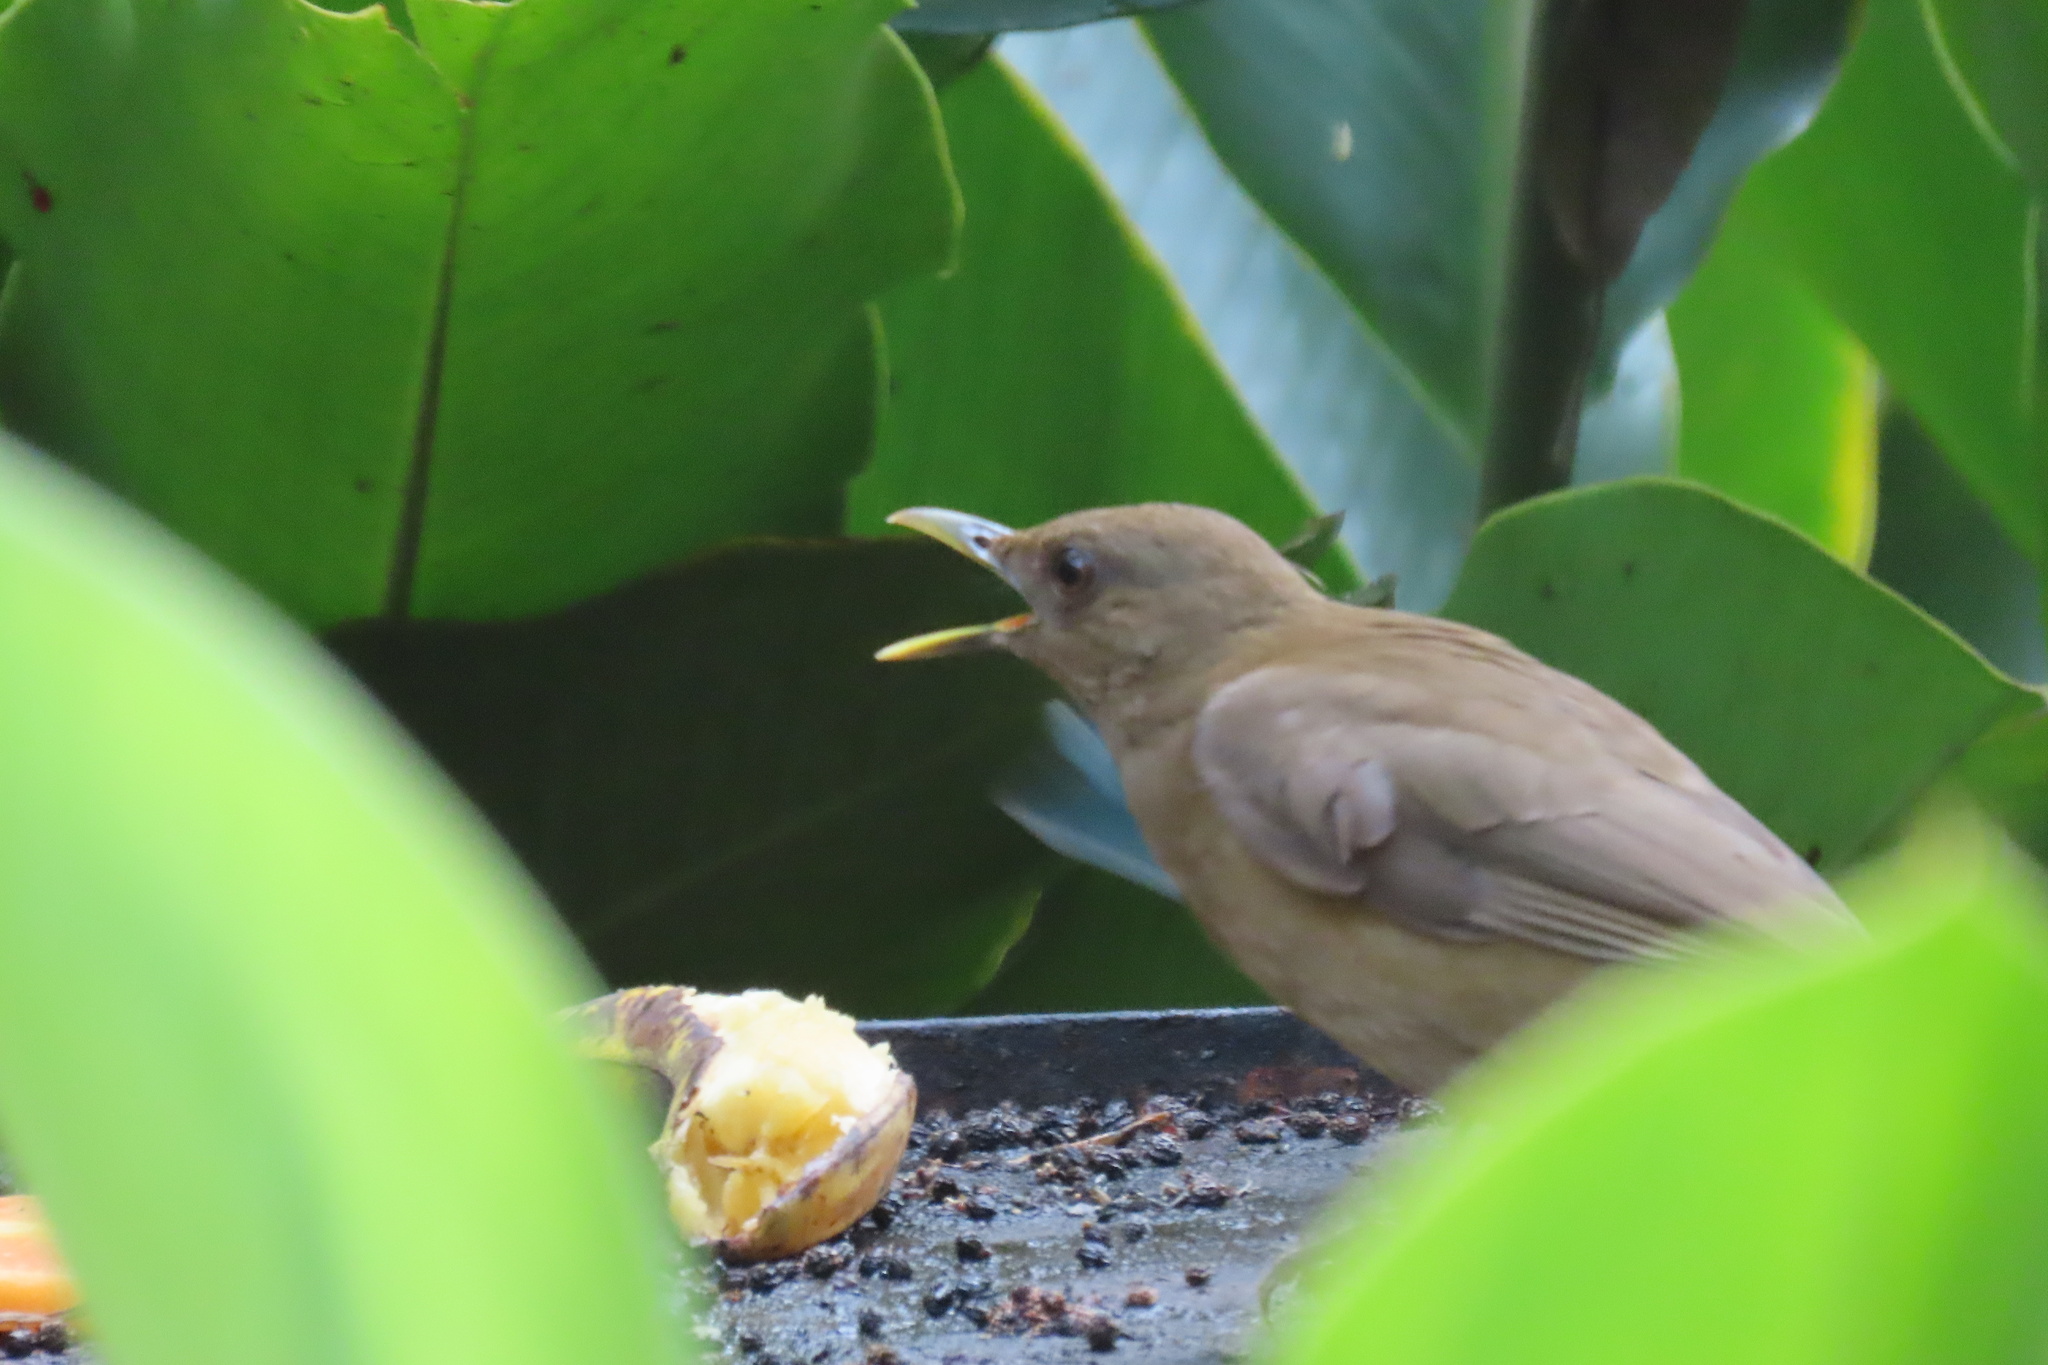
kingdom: Animalia
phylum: Chordata
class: Aves
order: Passeriformes
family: Turdidae
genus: Turdus
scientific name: Turdus grayi
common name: Clay-colored thrush
